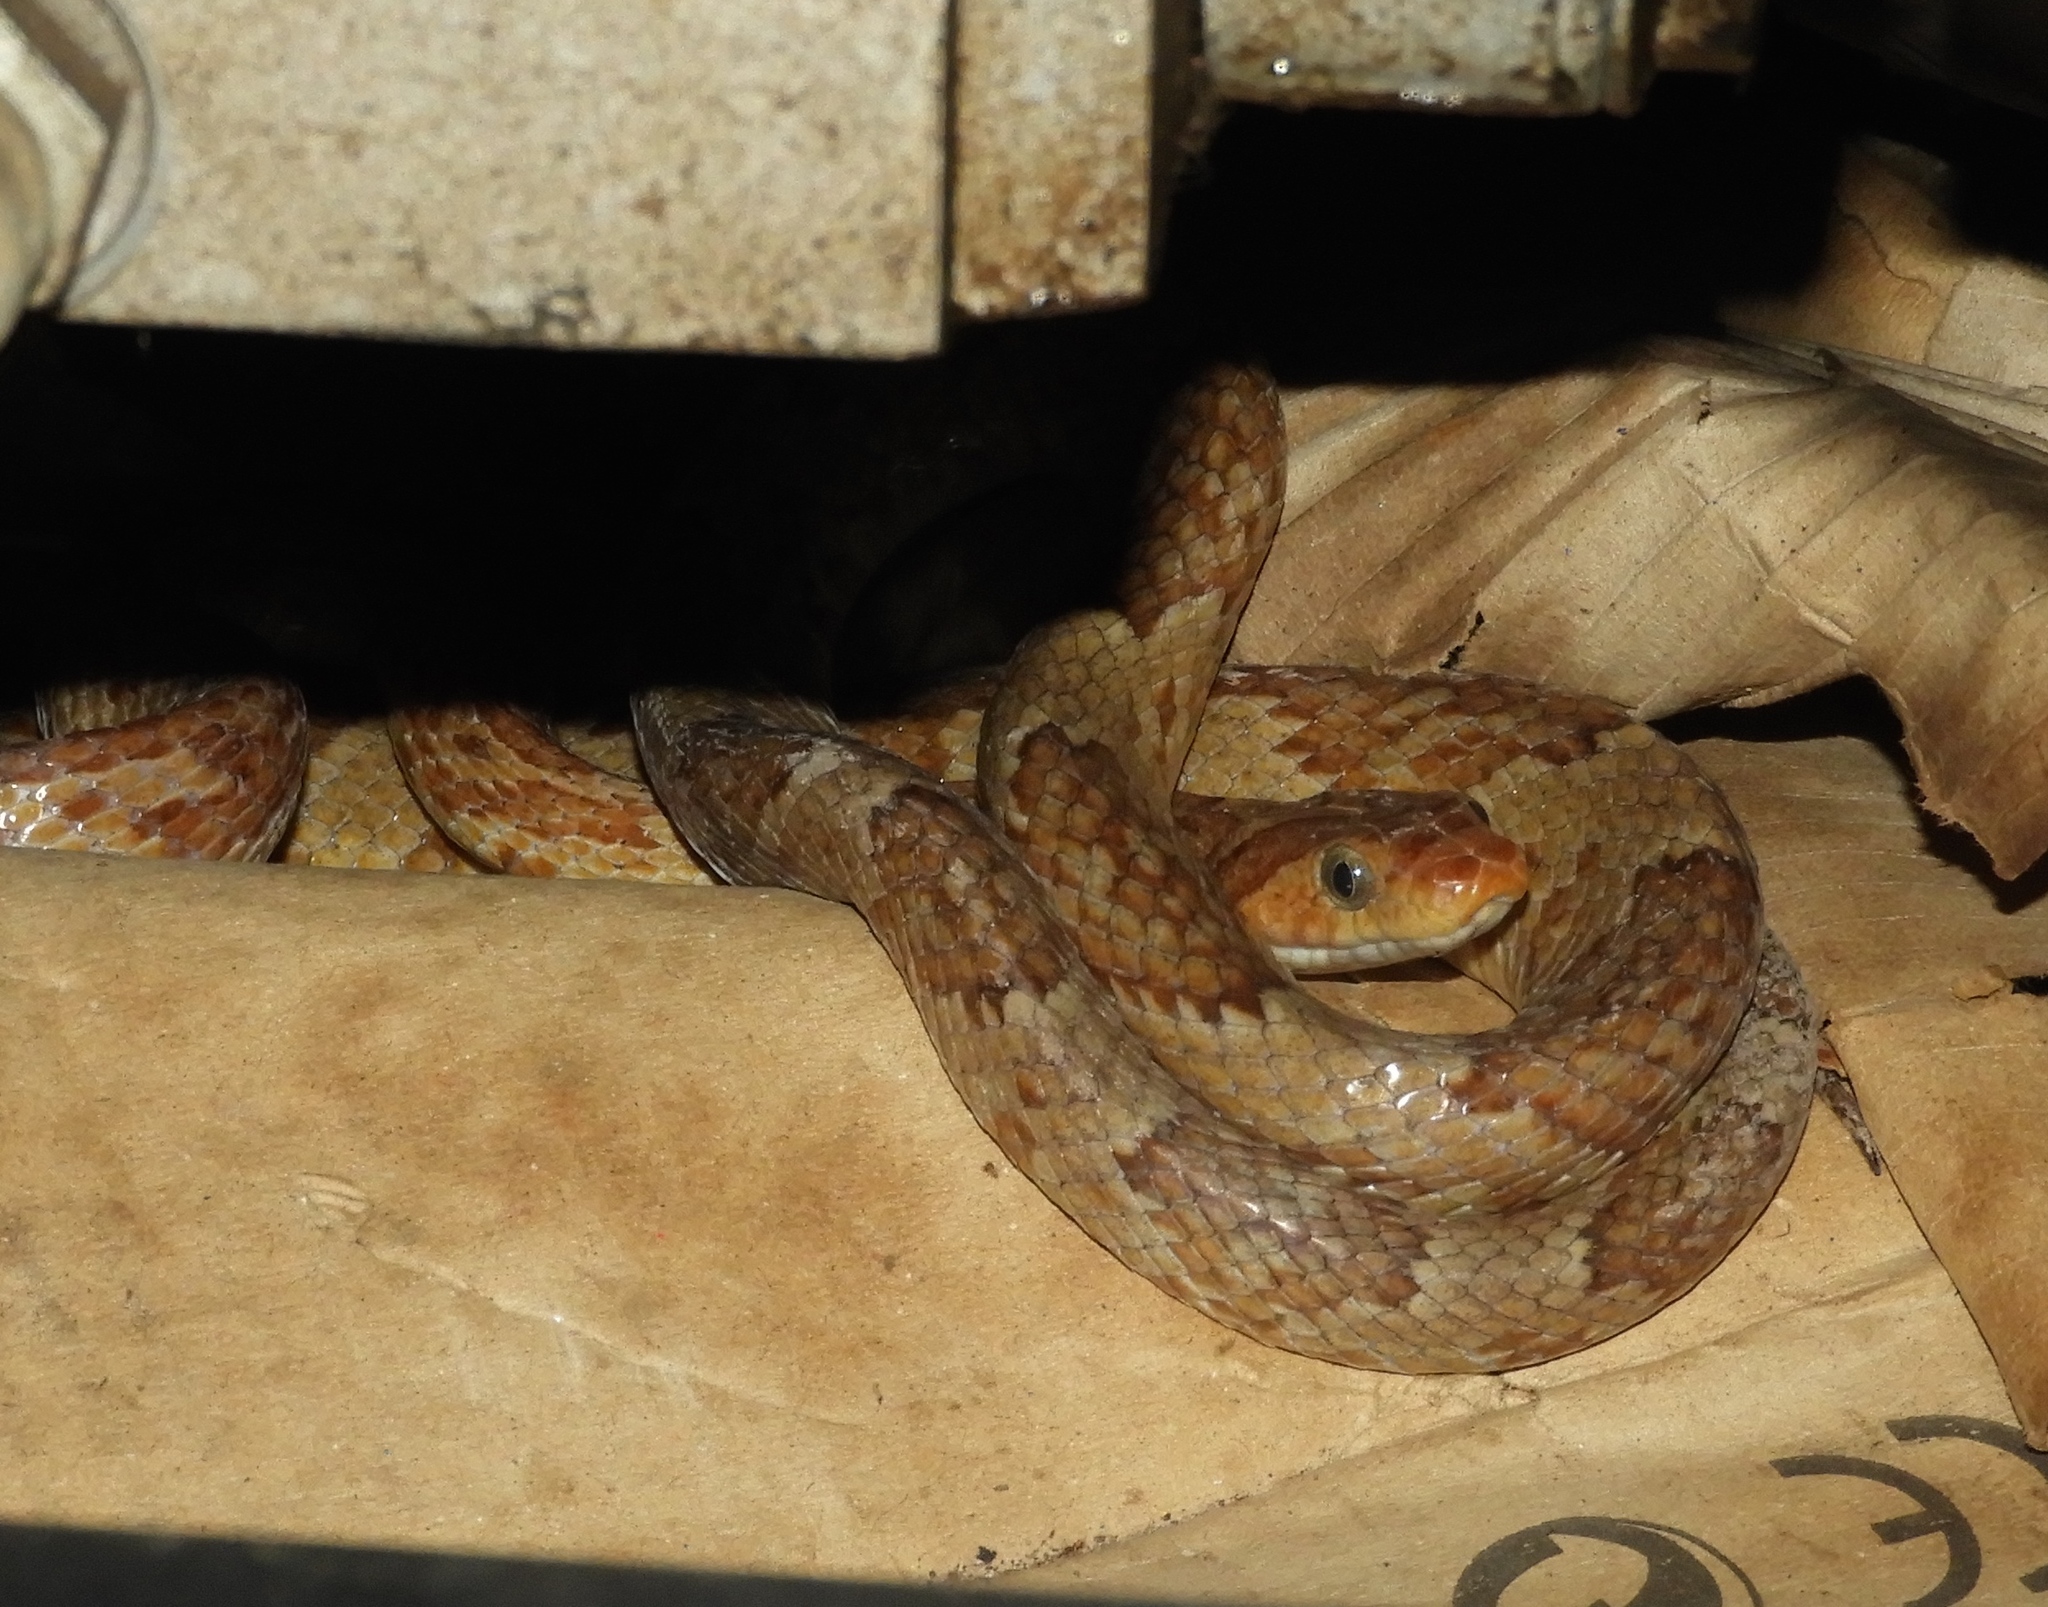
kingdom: Animalia
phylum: Chordata
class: Squamata
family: Colubridae
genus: Trimorphodon
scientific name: Trimorphodon paucimaculatus
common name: Sinaloan lyresnake
